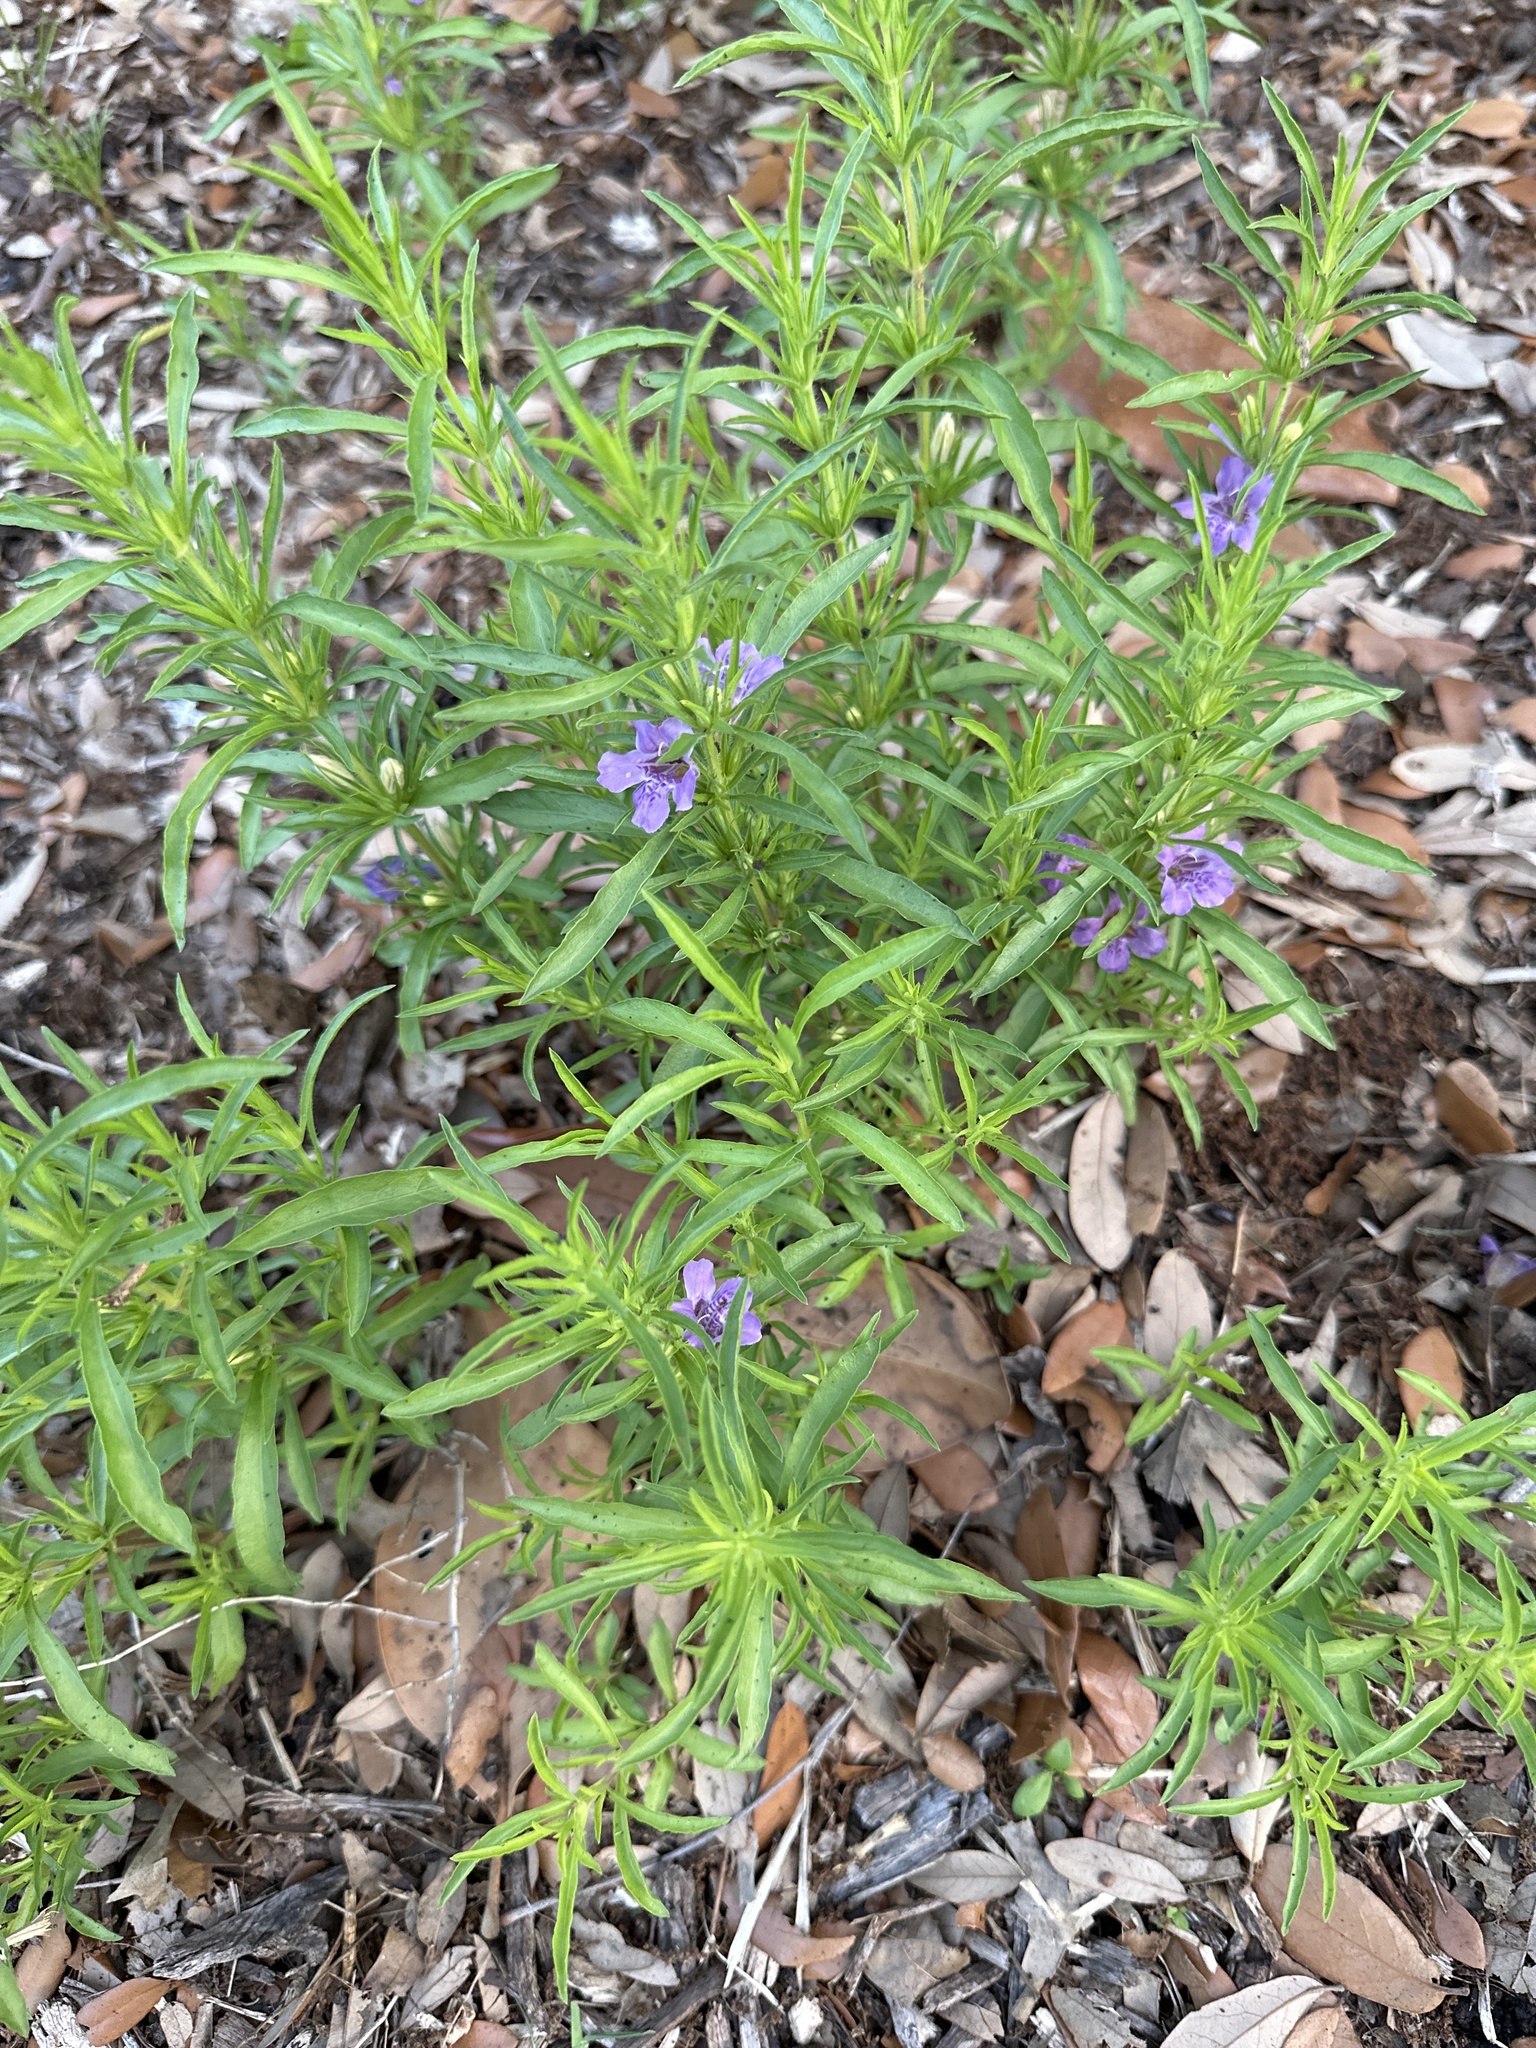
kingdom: Plantae
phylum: Tracheophyta
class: Magnoliopsida
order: Lamiales
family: Acanthaceae
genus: Dyschoriste
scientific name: Dyschoriste linearis
